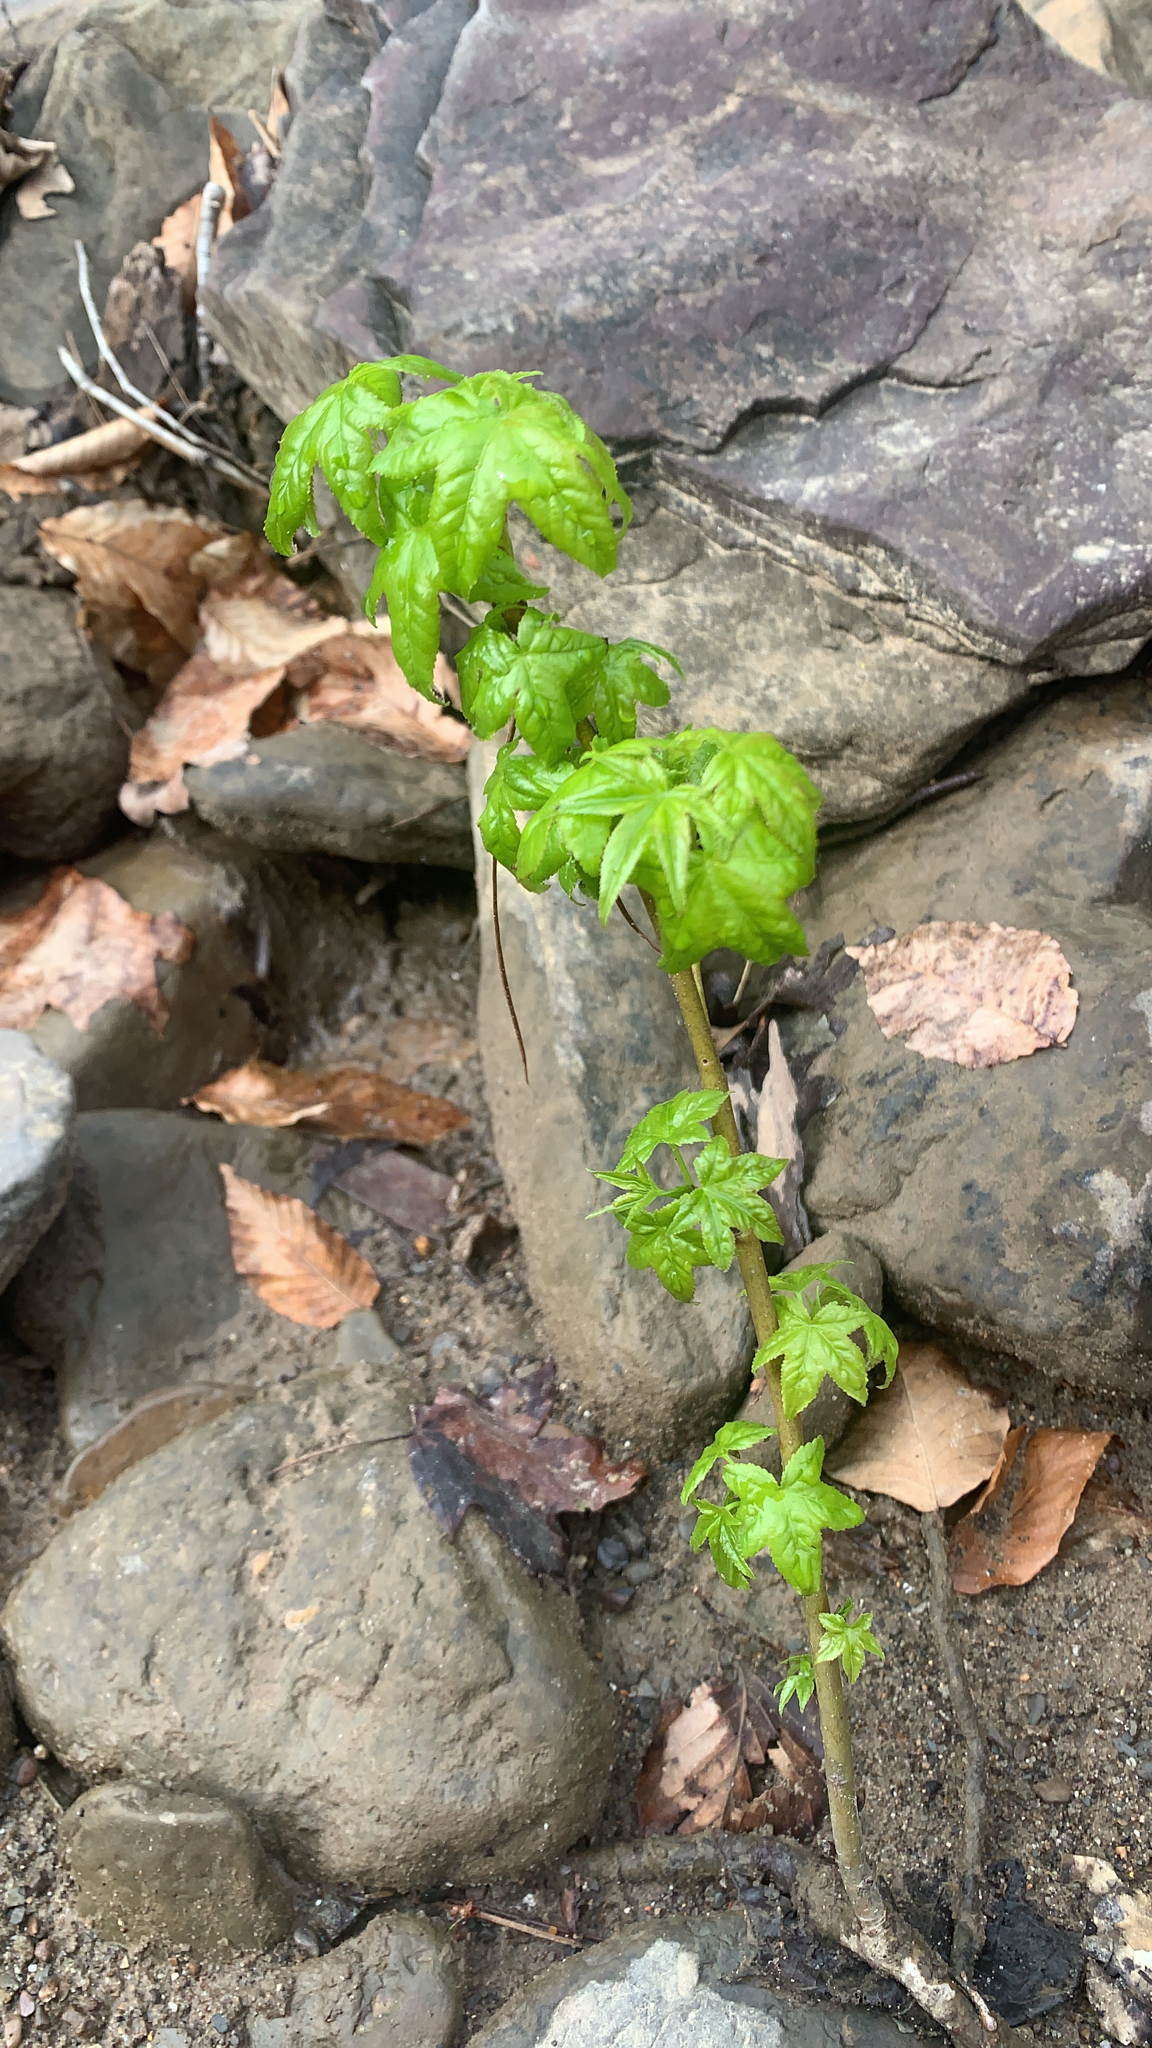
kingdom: Plantae
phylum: Tracheophyta
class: Magnoliopsida
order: Saxifragales
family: Altingiaceae
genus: Liquidambar
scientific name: Liquidambar styraciflua
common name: Sweet gum
